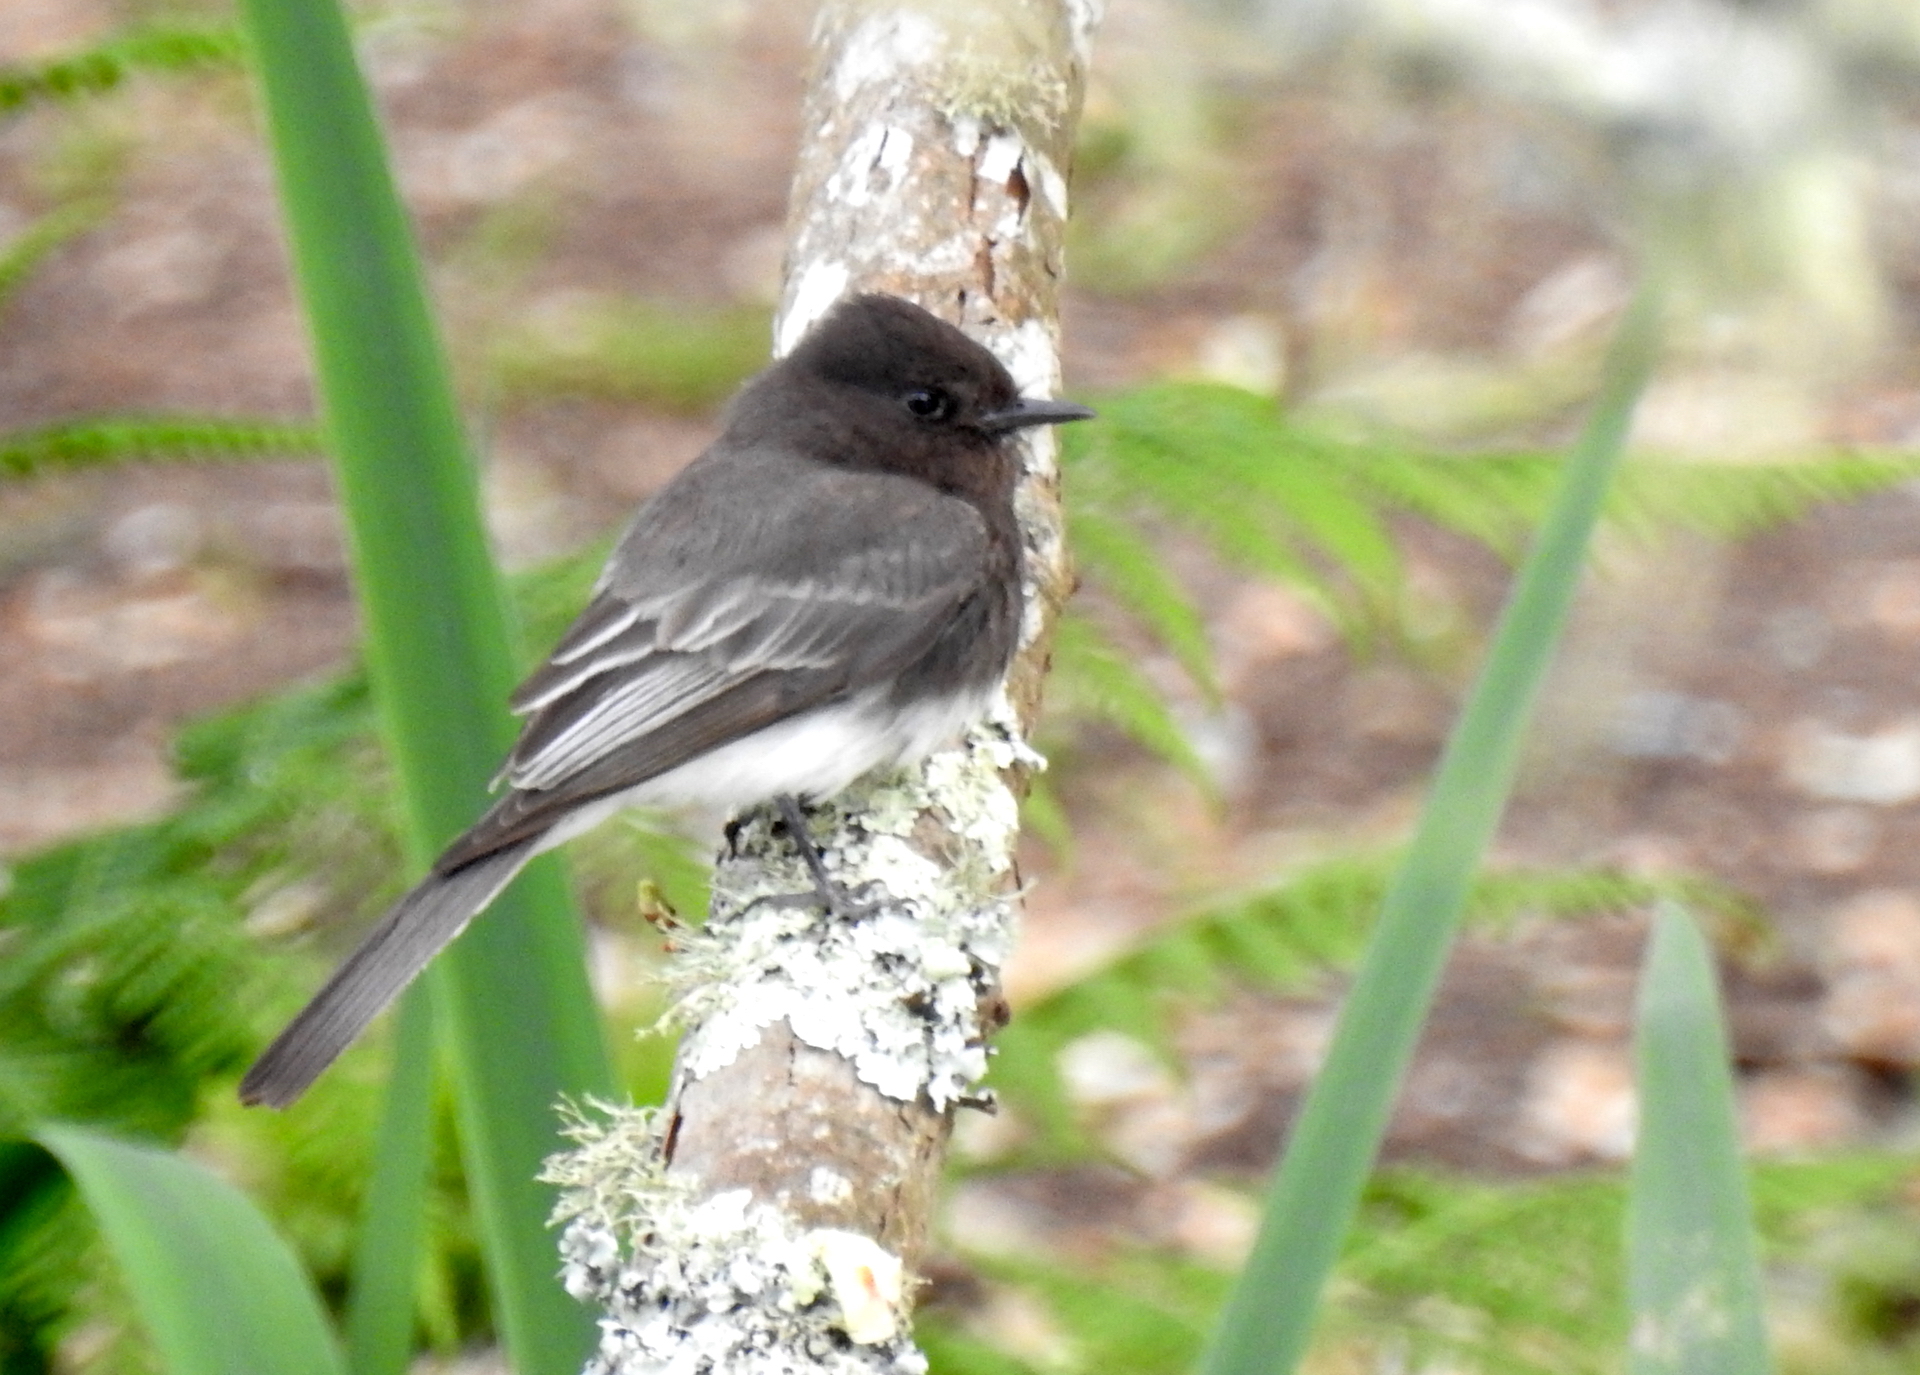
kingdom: Animalia
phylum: Chordata
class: Aves
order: Passeriformes
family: Tyrannidae
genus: Sayornis
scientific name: Sayornis nigricans
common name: Black phoebe
